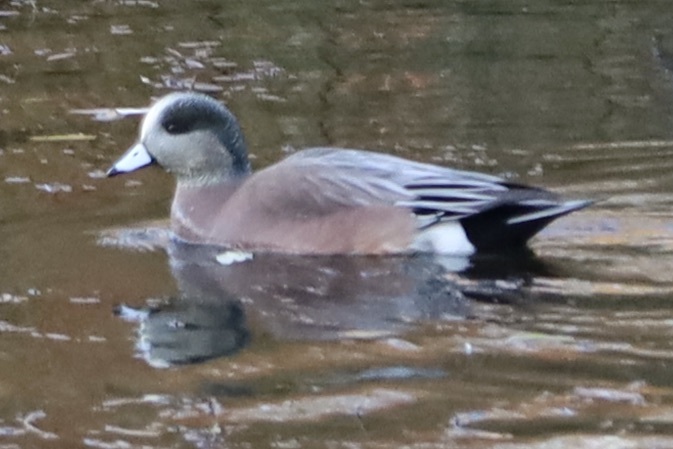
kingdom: Animalia
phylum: Chordata
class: Aves
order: Anseriformes
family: Anatidae
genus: Mareca
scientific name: Mareca americana
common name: American wigeon
